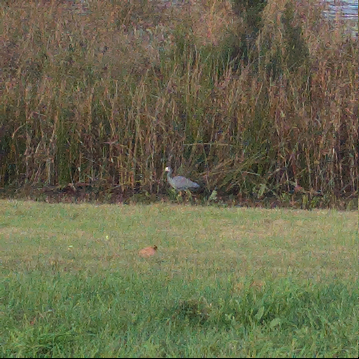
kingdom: Animalia
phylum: Chordata
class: Aves
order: Pelecaniformes
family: Ardeidae
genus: Egretta
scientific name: Egretta novaehollandiae
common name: White-faced heron
